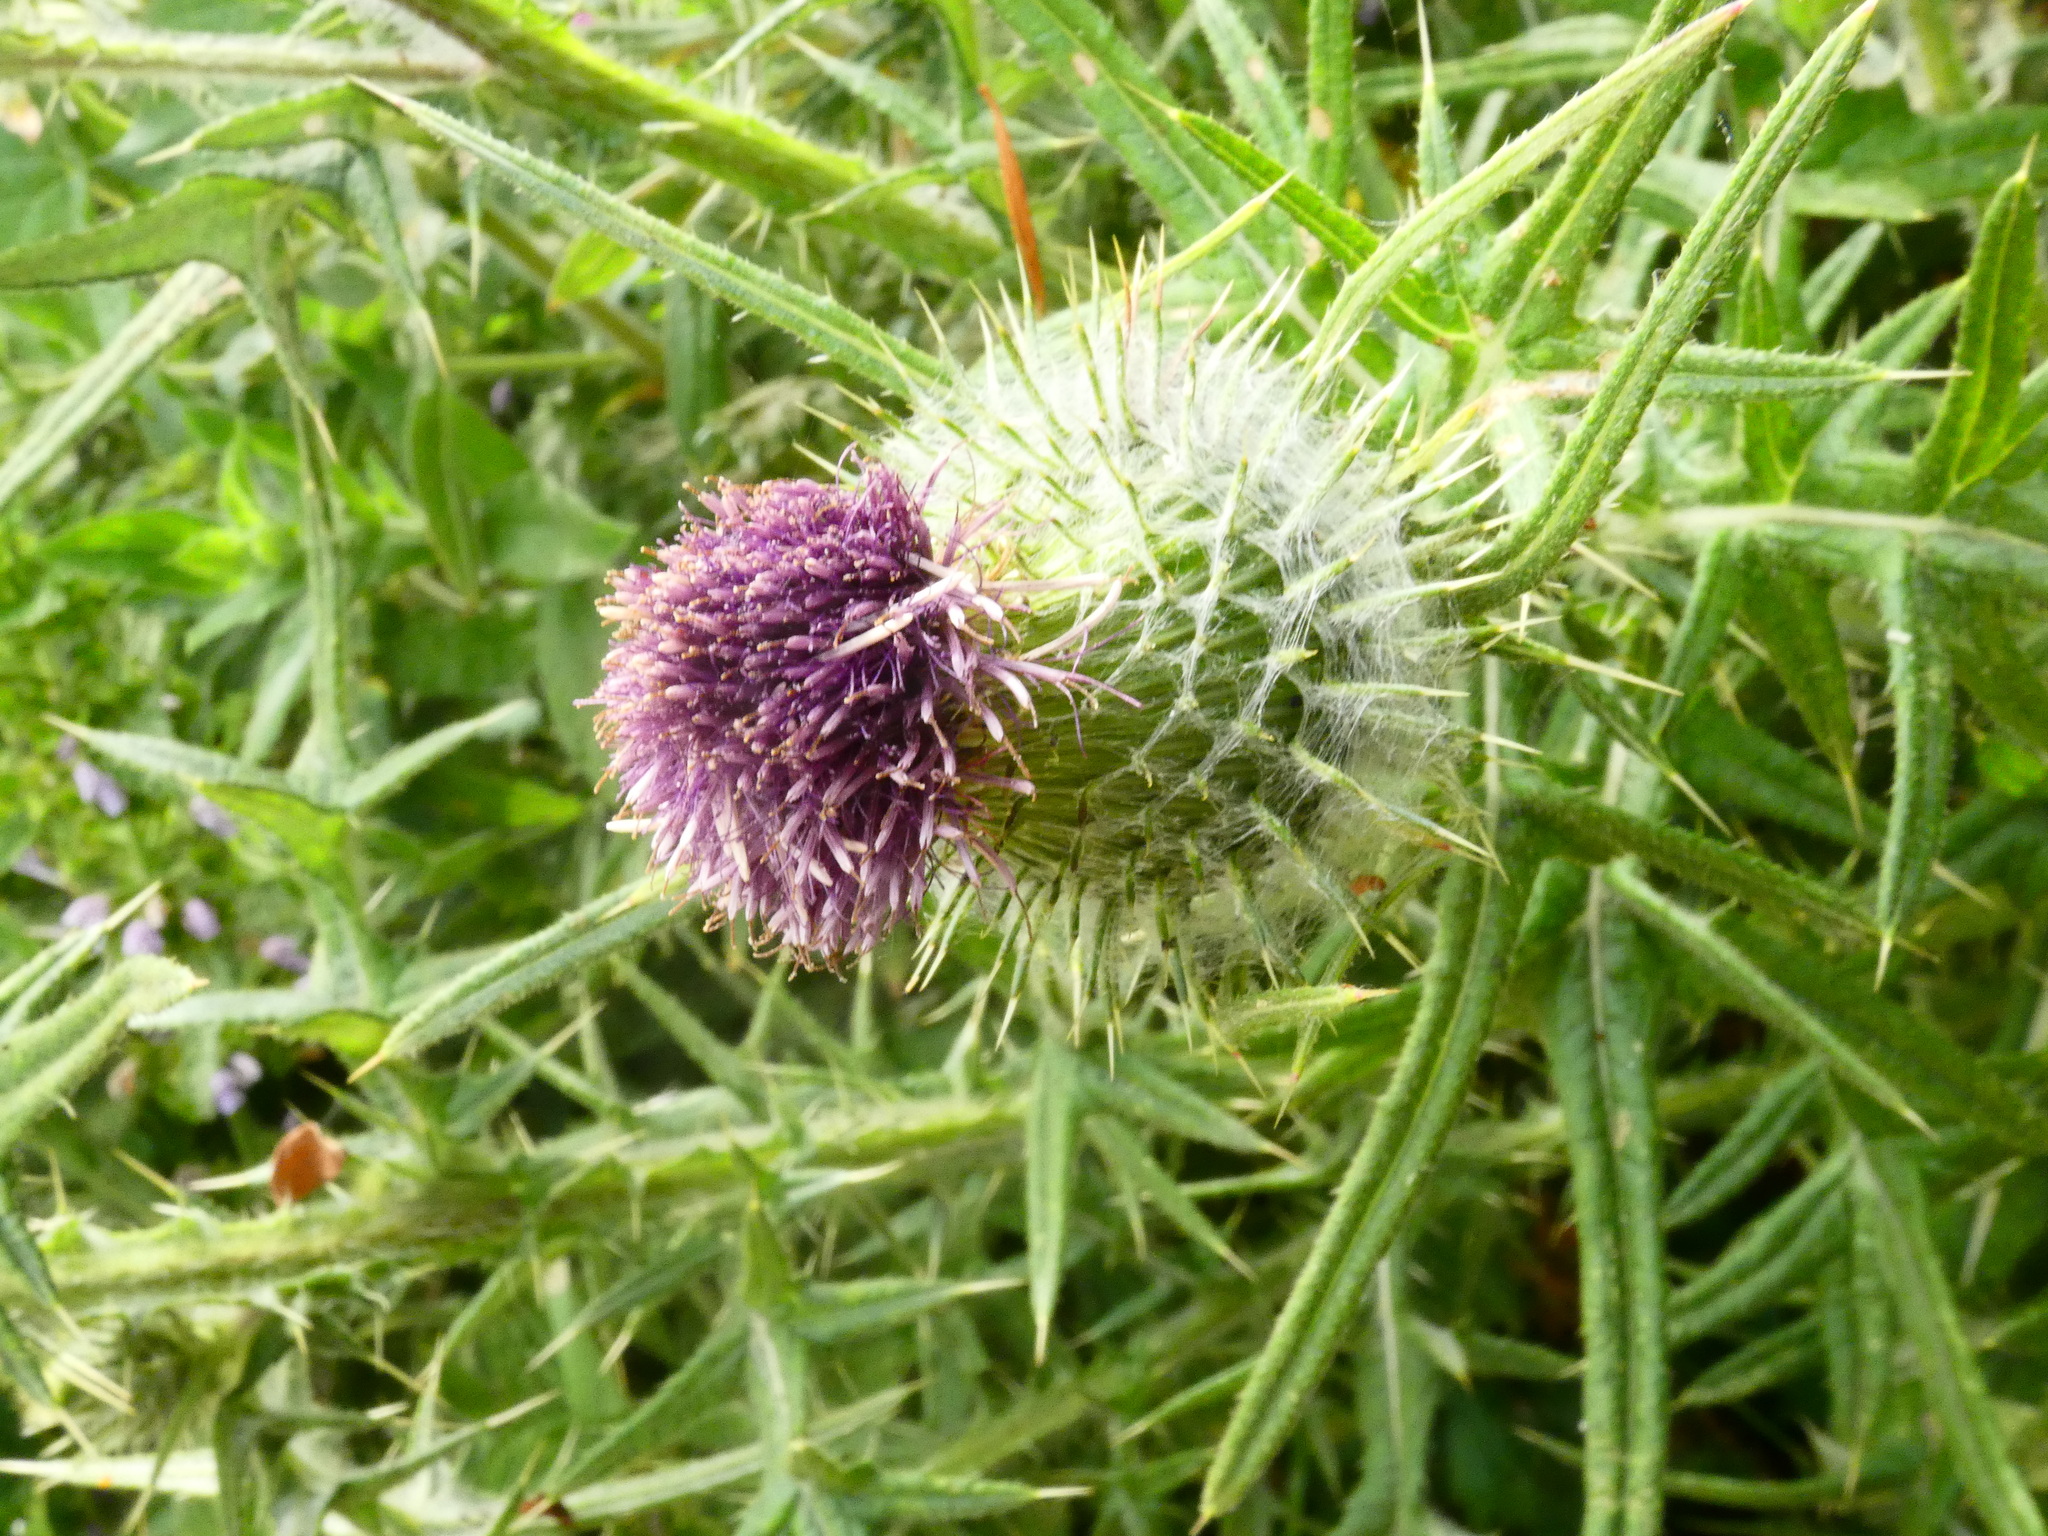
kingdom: Plantae
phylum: Tracheophyta
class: Magnoliopsida
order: Asterales
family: Asteraceae
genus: Lophiolepis
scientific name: Lophiolepis eriophora
